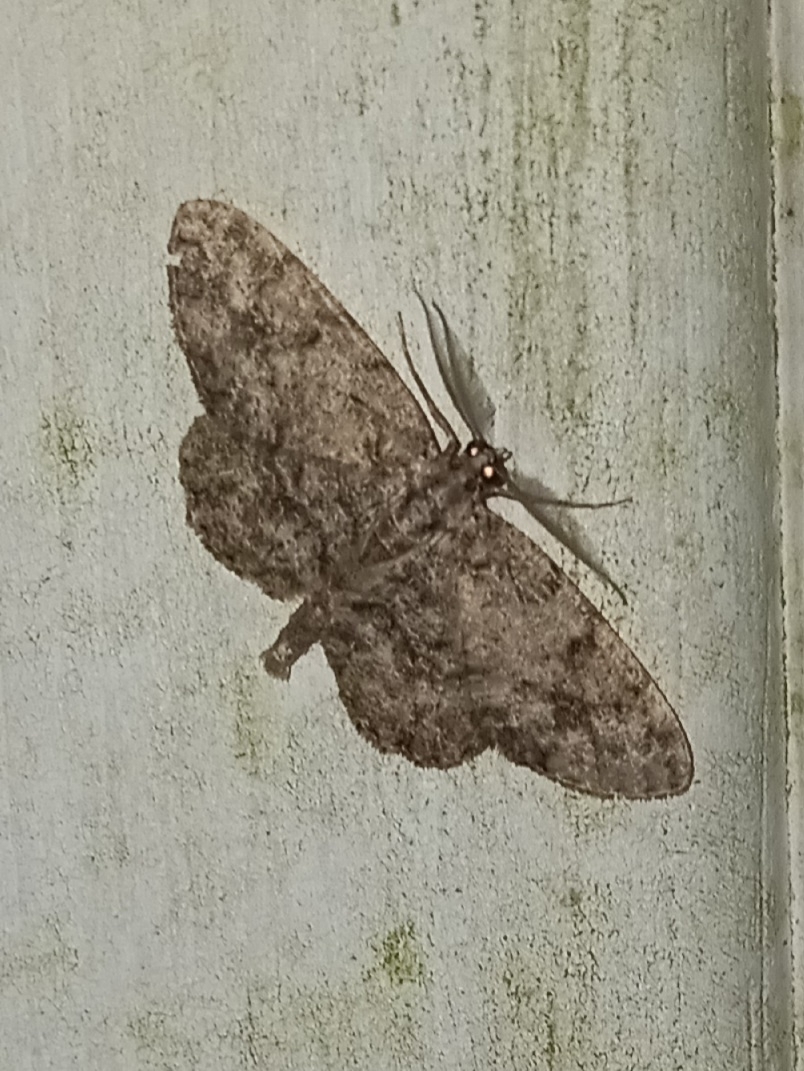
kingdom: Animalia
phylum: Arthropoda
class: Insecta
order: Lepidoptera
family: Geometridae
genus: Protoboarmia
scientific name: Protoboarmia porcelaria
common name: Porcelain gray
